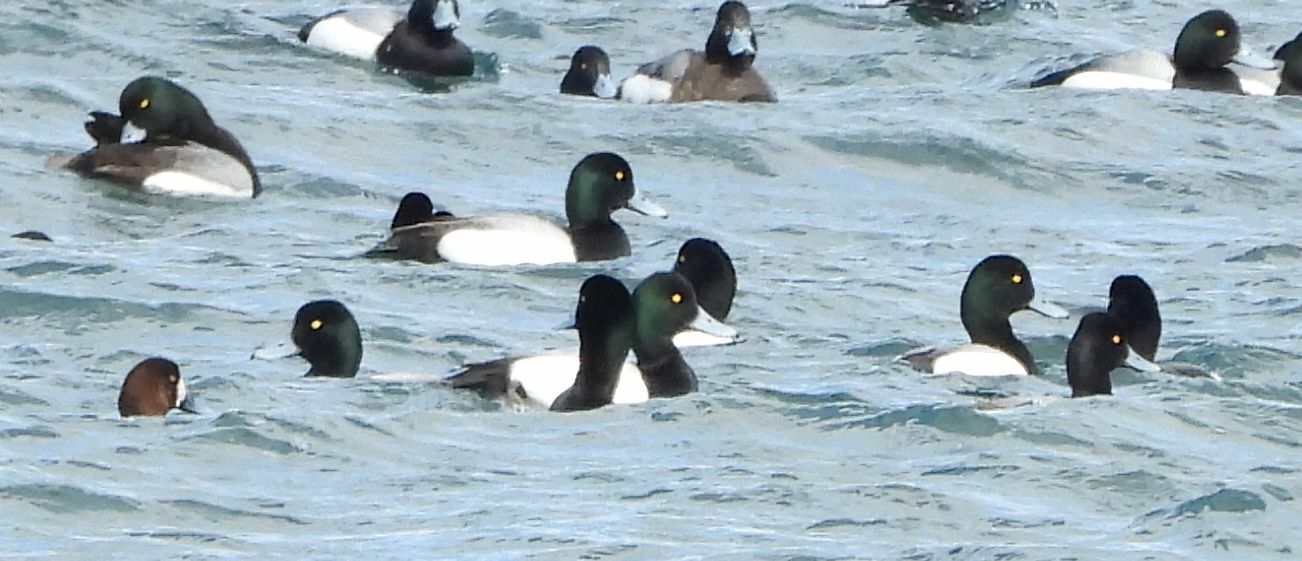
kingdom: Animalia
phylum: Chordata
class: Aves
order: Anseriformes
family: Anatidae
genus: Aythya
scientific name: Aythya marila
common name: Greater scaup
